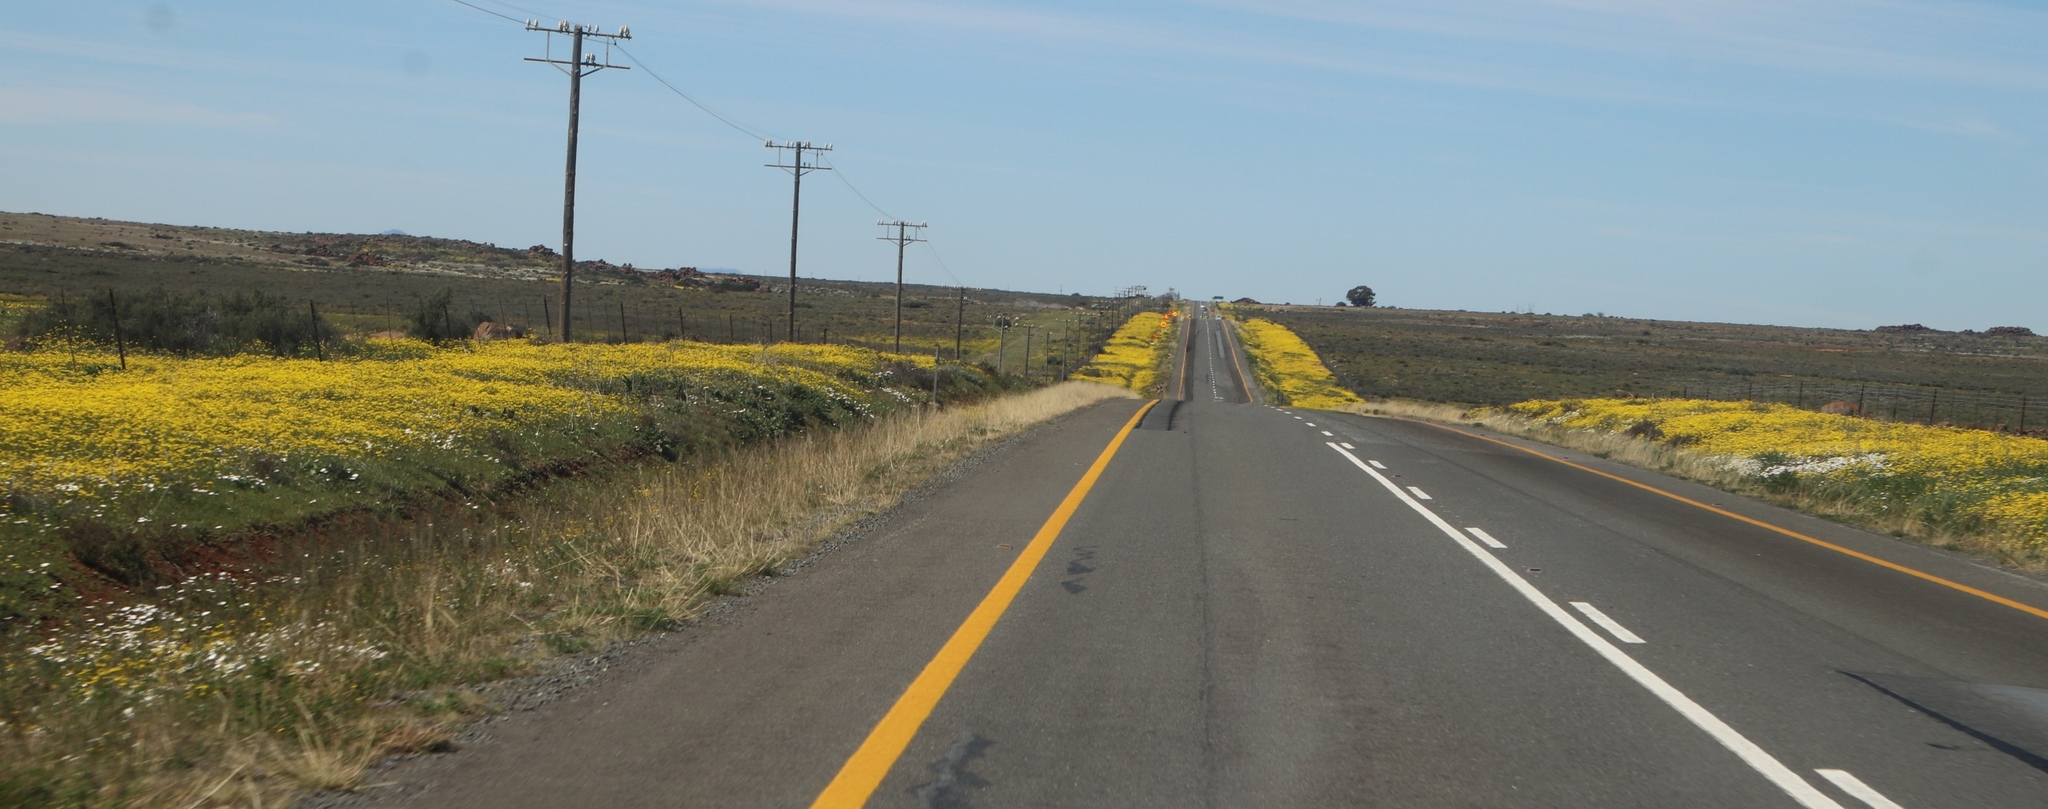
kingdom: Plantae
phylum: Tracheophyta
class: Magnoliopsida
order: Asterales
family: Asteraceae
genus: Senecio
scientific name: Senecio abruptus
